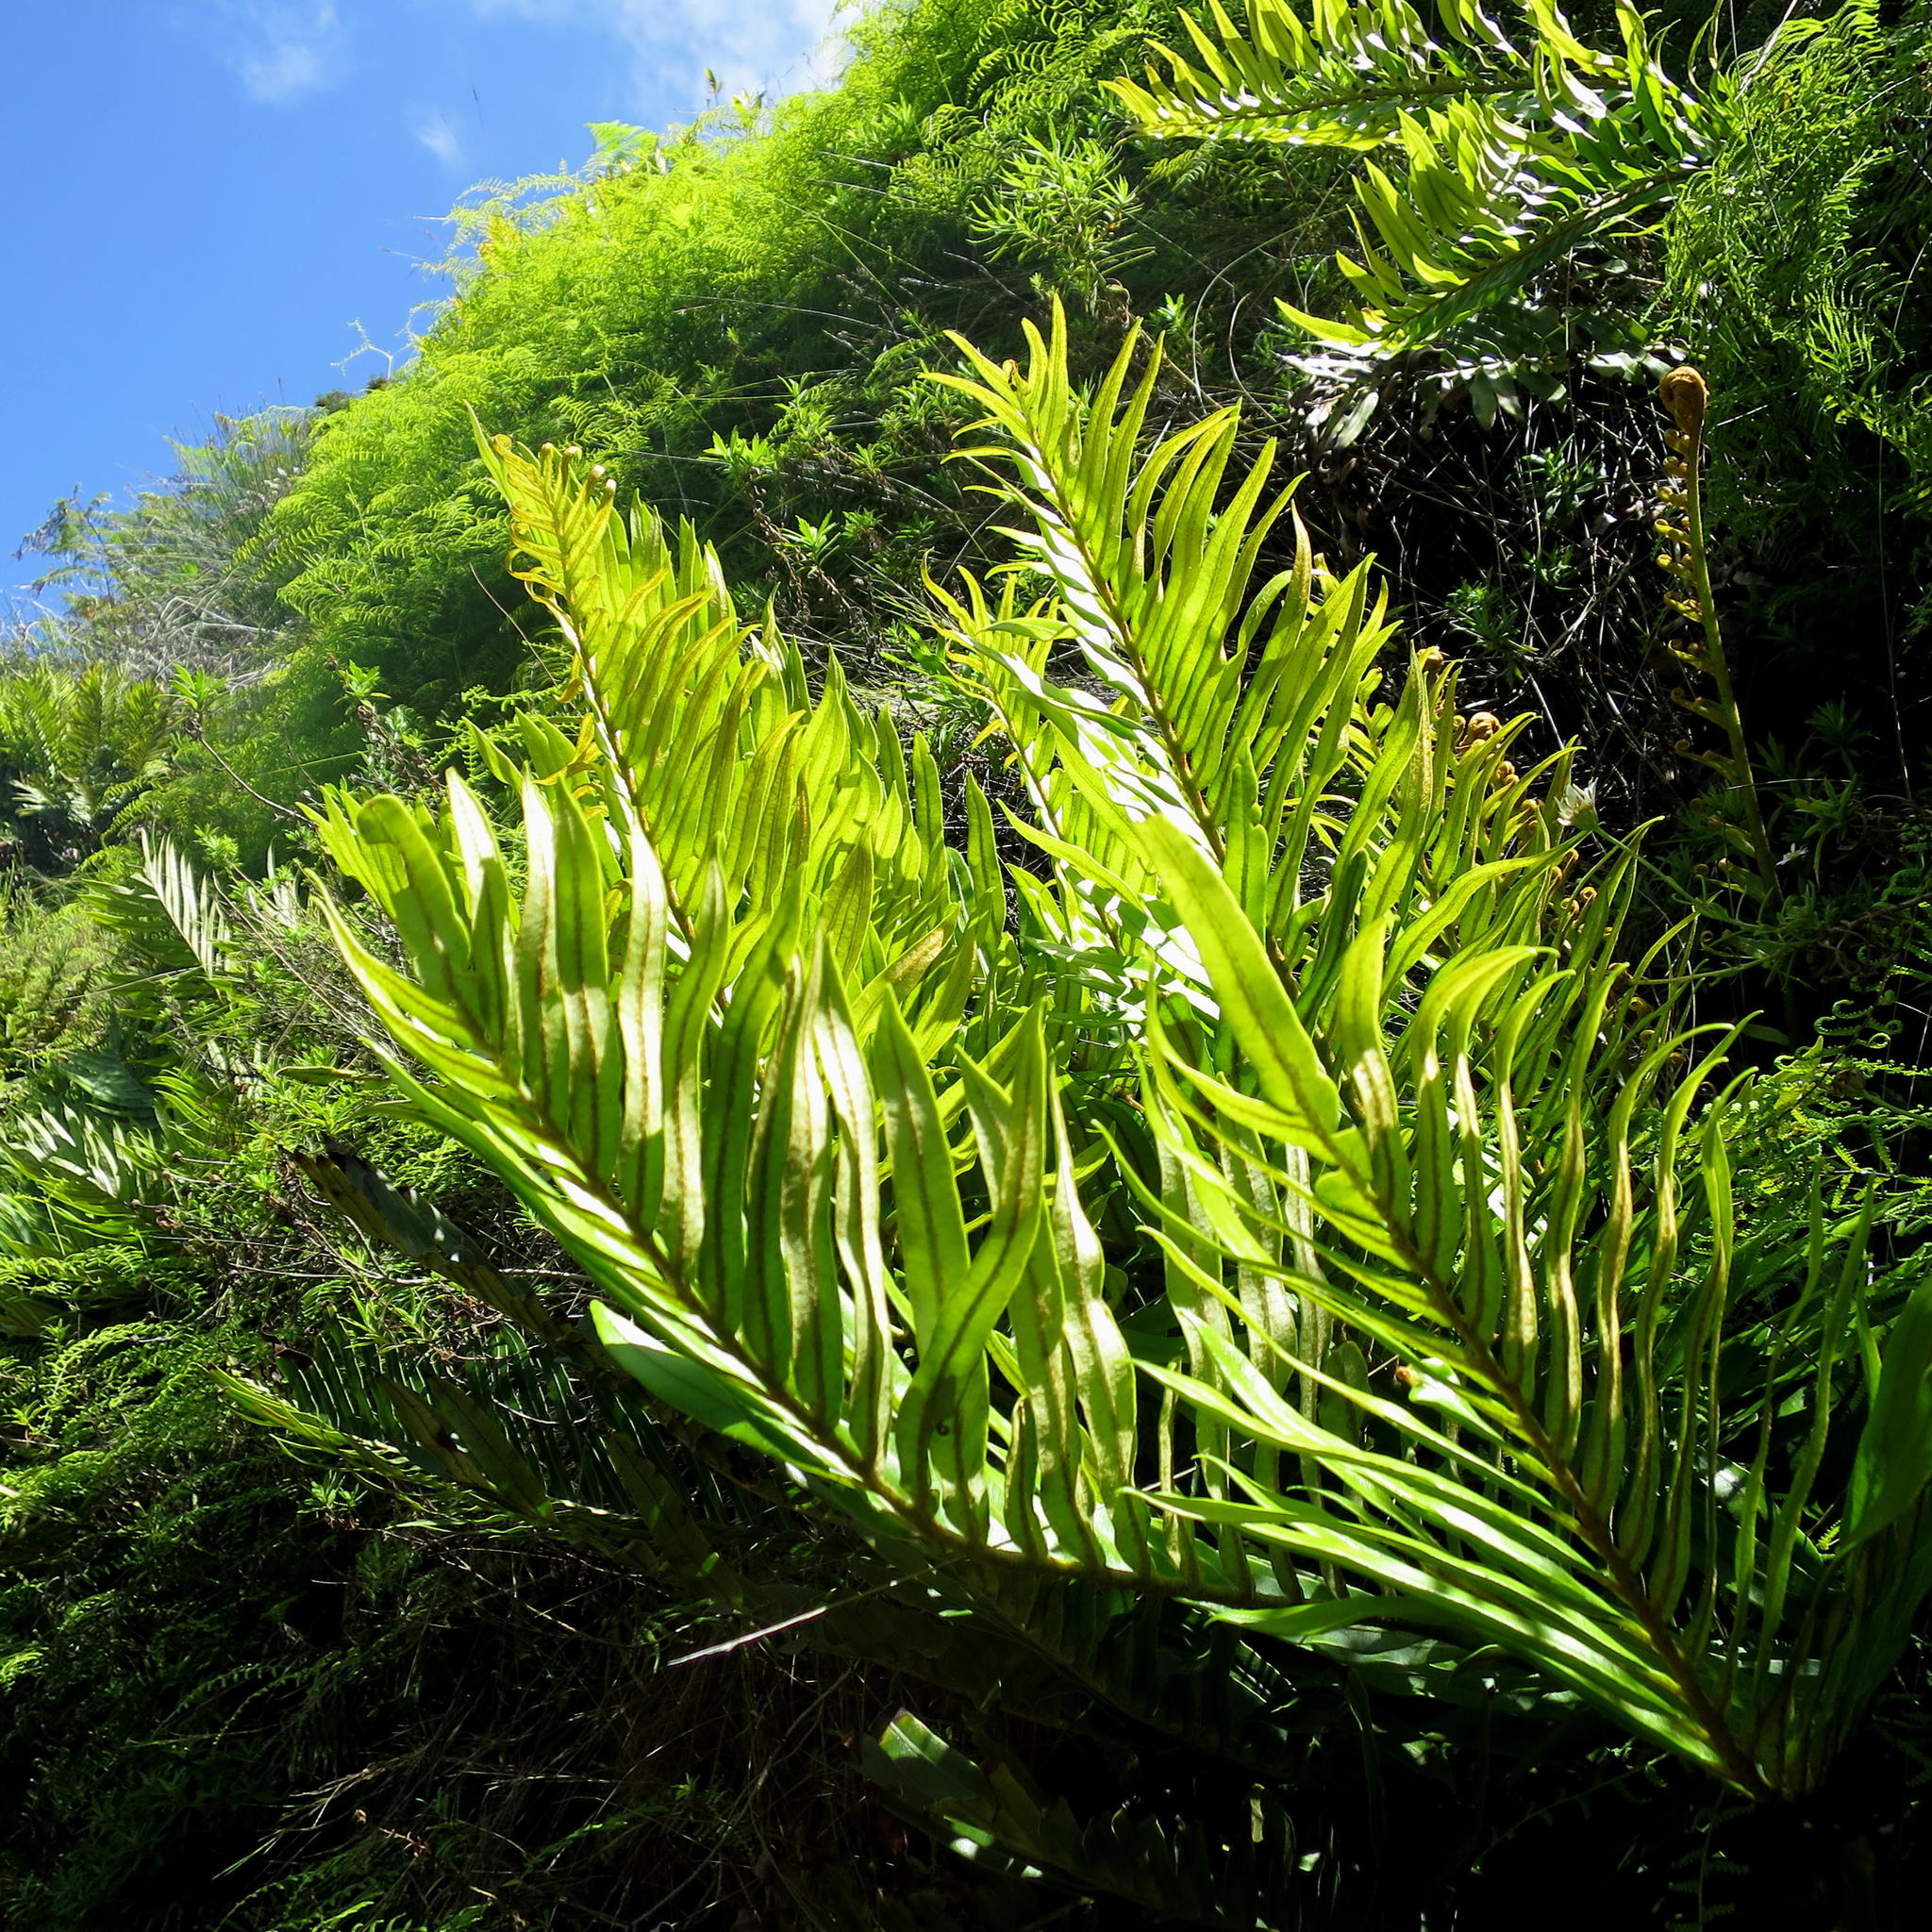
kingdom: Plantae
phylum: Tracheophyta
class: Polypodiopsida
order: Polypodiales
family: Blechnaceae
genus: Lomariocycas
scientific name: Lomariocycas tabularis
